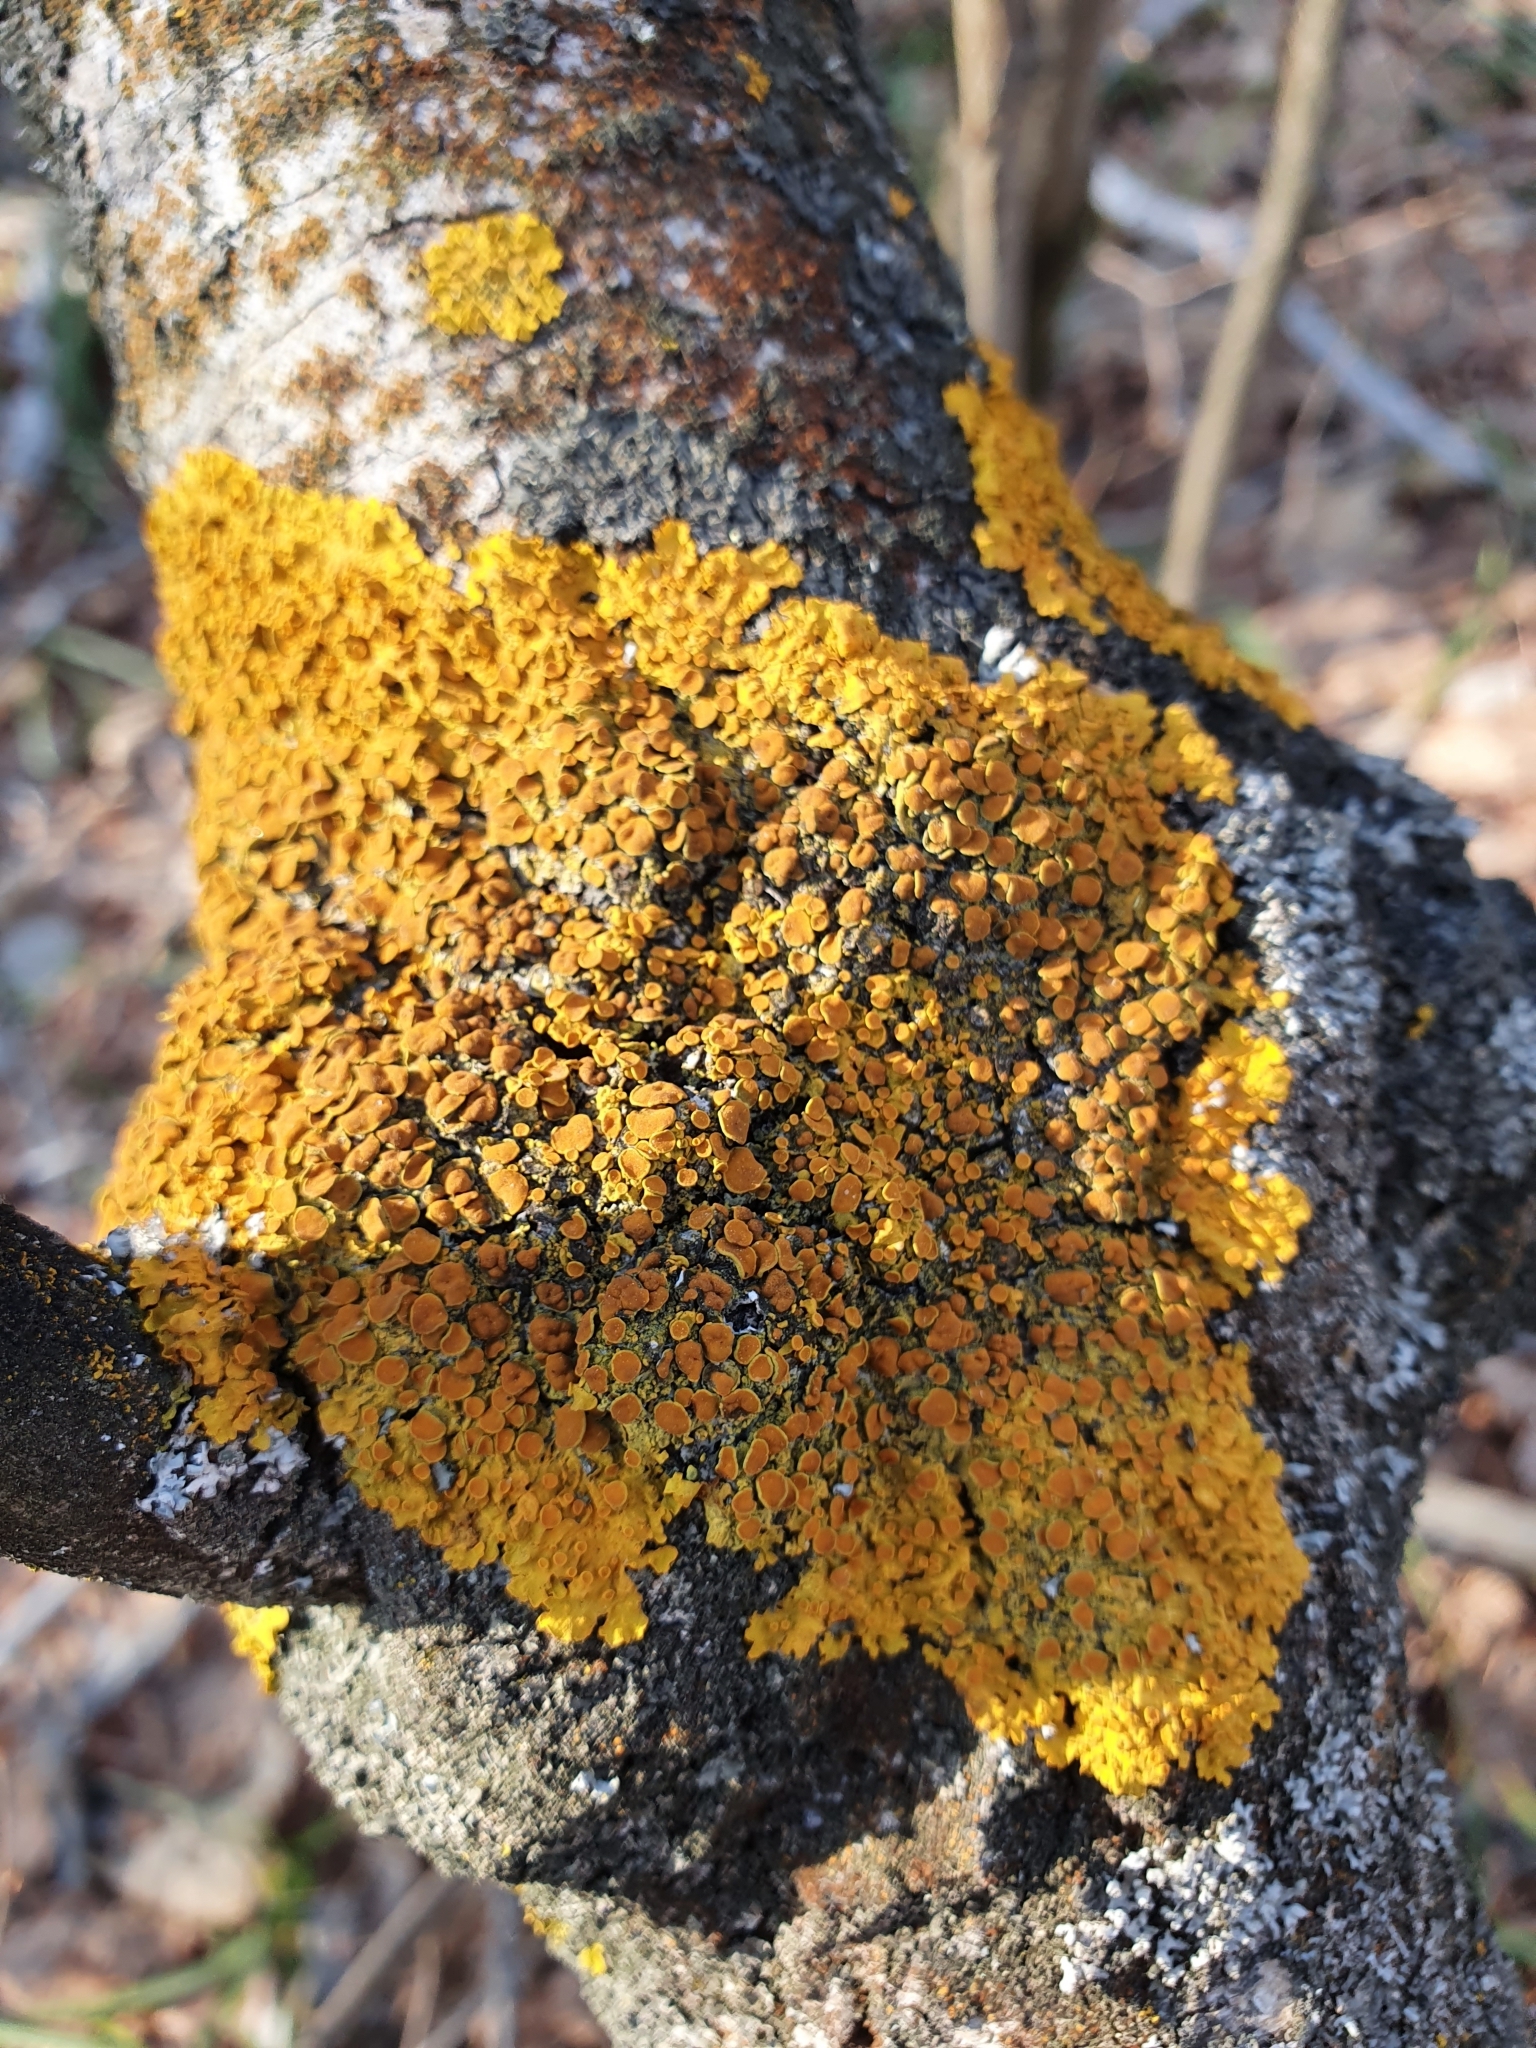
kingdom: Fungi
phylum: Ascomycota
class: Lecanoromycetes
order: Teloschistales
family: Teloschistaceae
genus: Xanthoria
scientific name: Xanthoria parietina
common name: Common orange lichen
